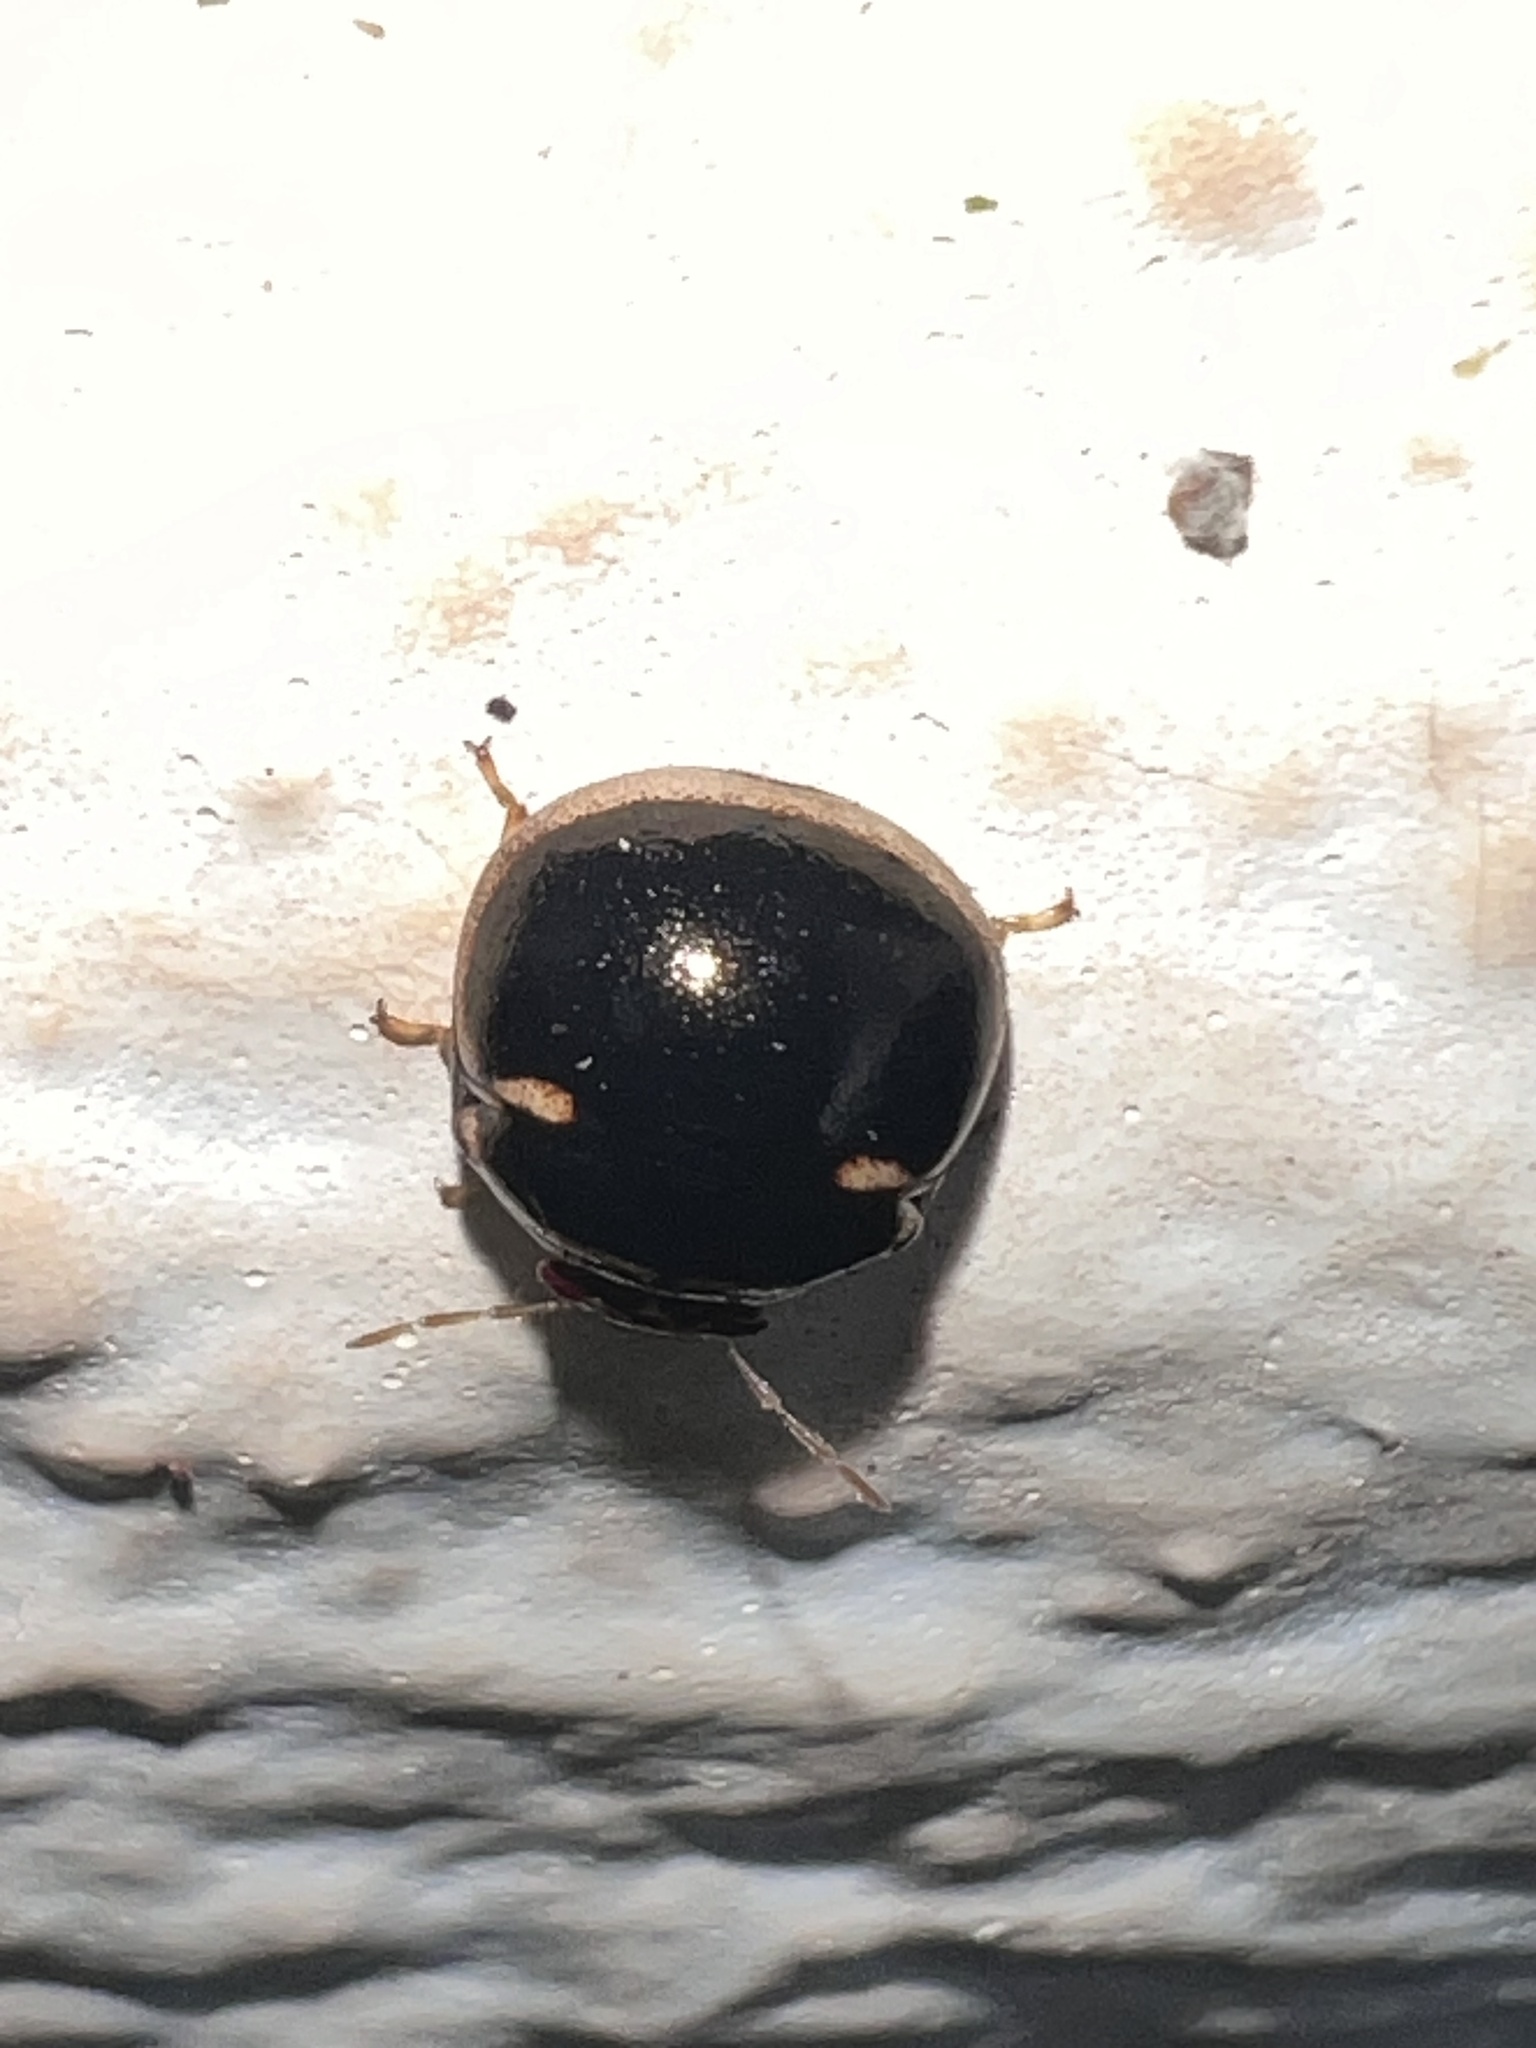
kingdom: Animalia
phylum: Arthropoda
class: Insecta
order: Hemiptera
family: Plataspidae
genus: Coptosoma
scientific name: Coptosoma
